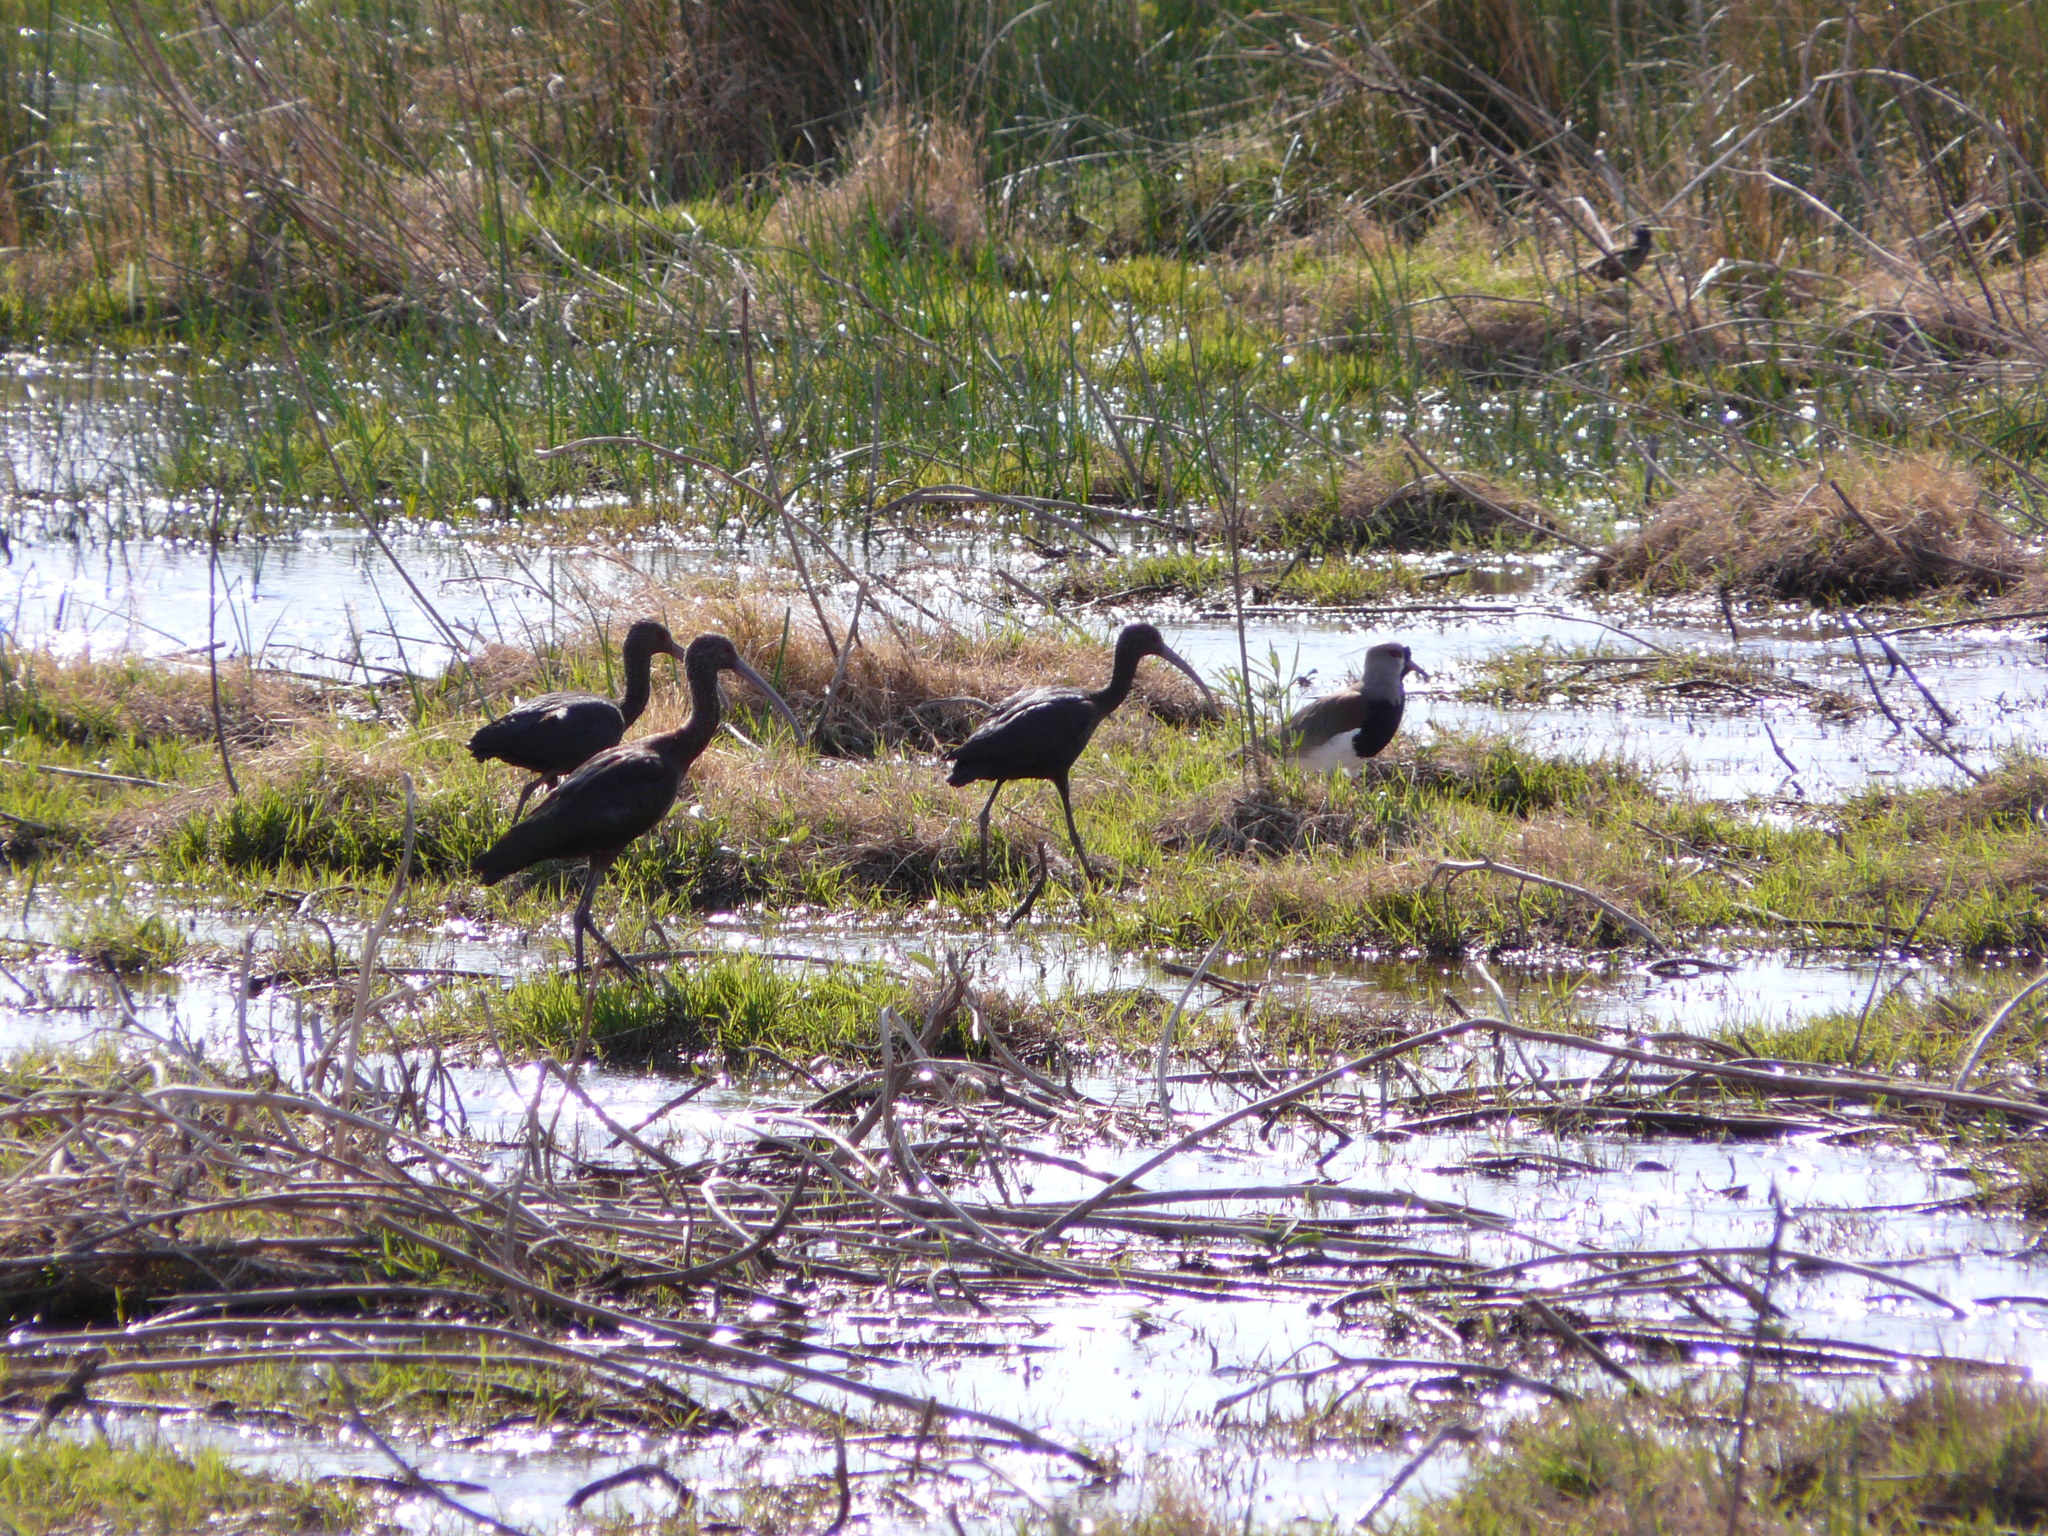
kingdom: Animalia
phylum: Chordata
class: Aves
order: Pelecaniformes
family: Threskiornithidae
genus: Plegadis
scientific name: Plegadis chihi
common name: White-faced ibis
